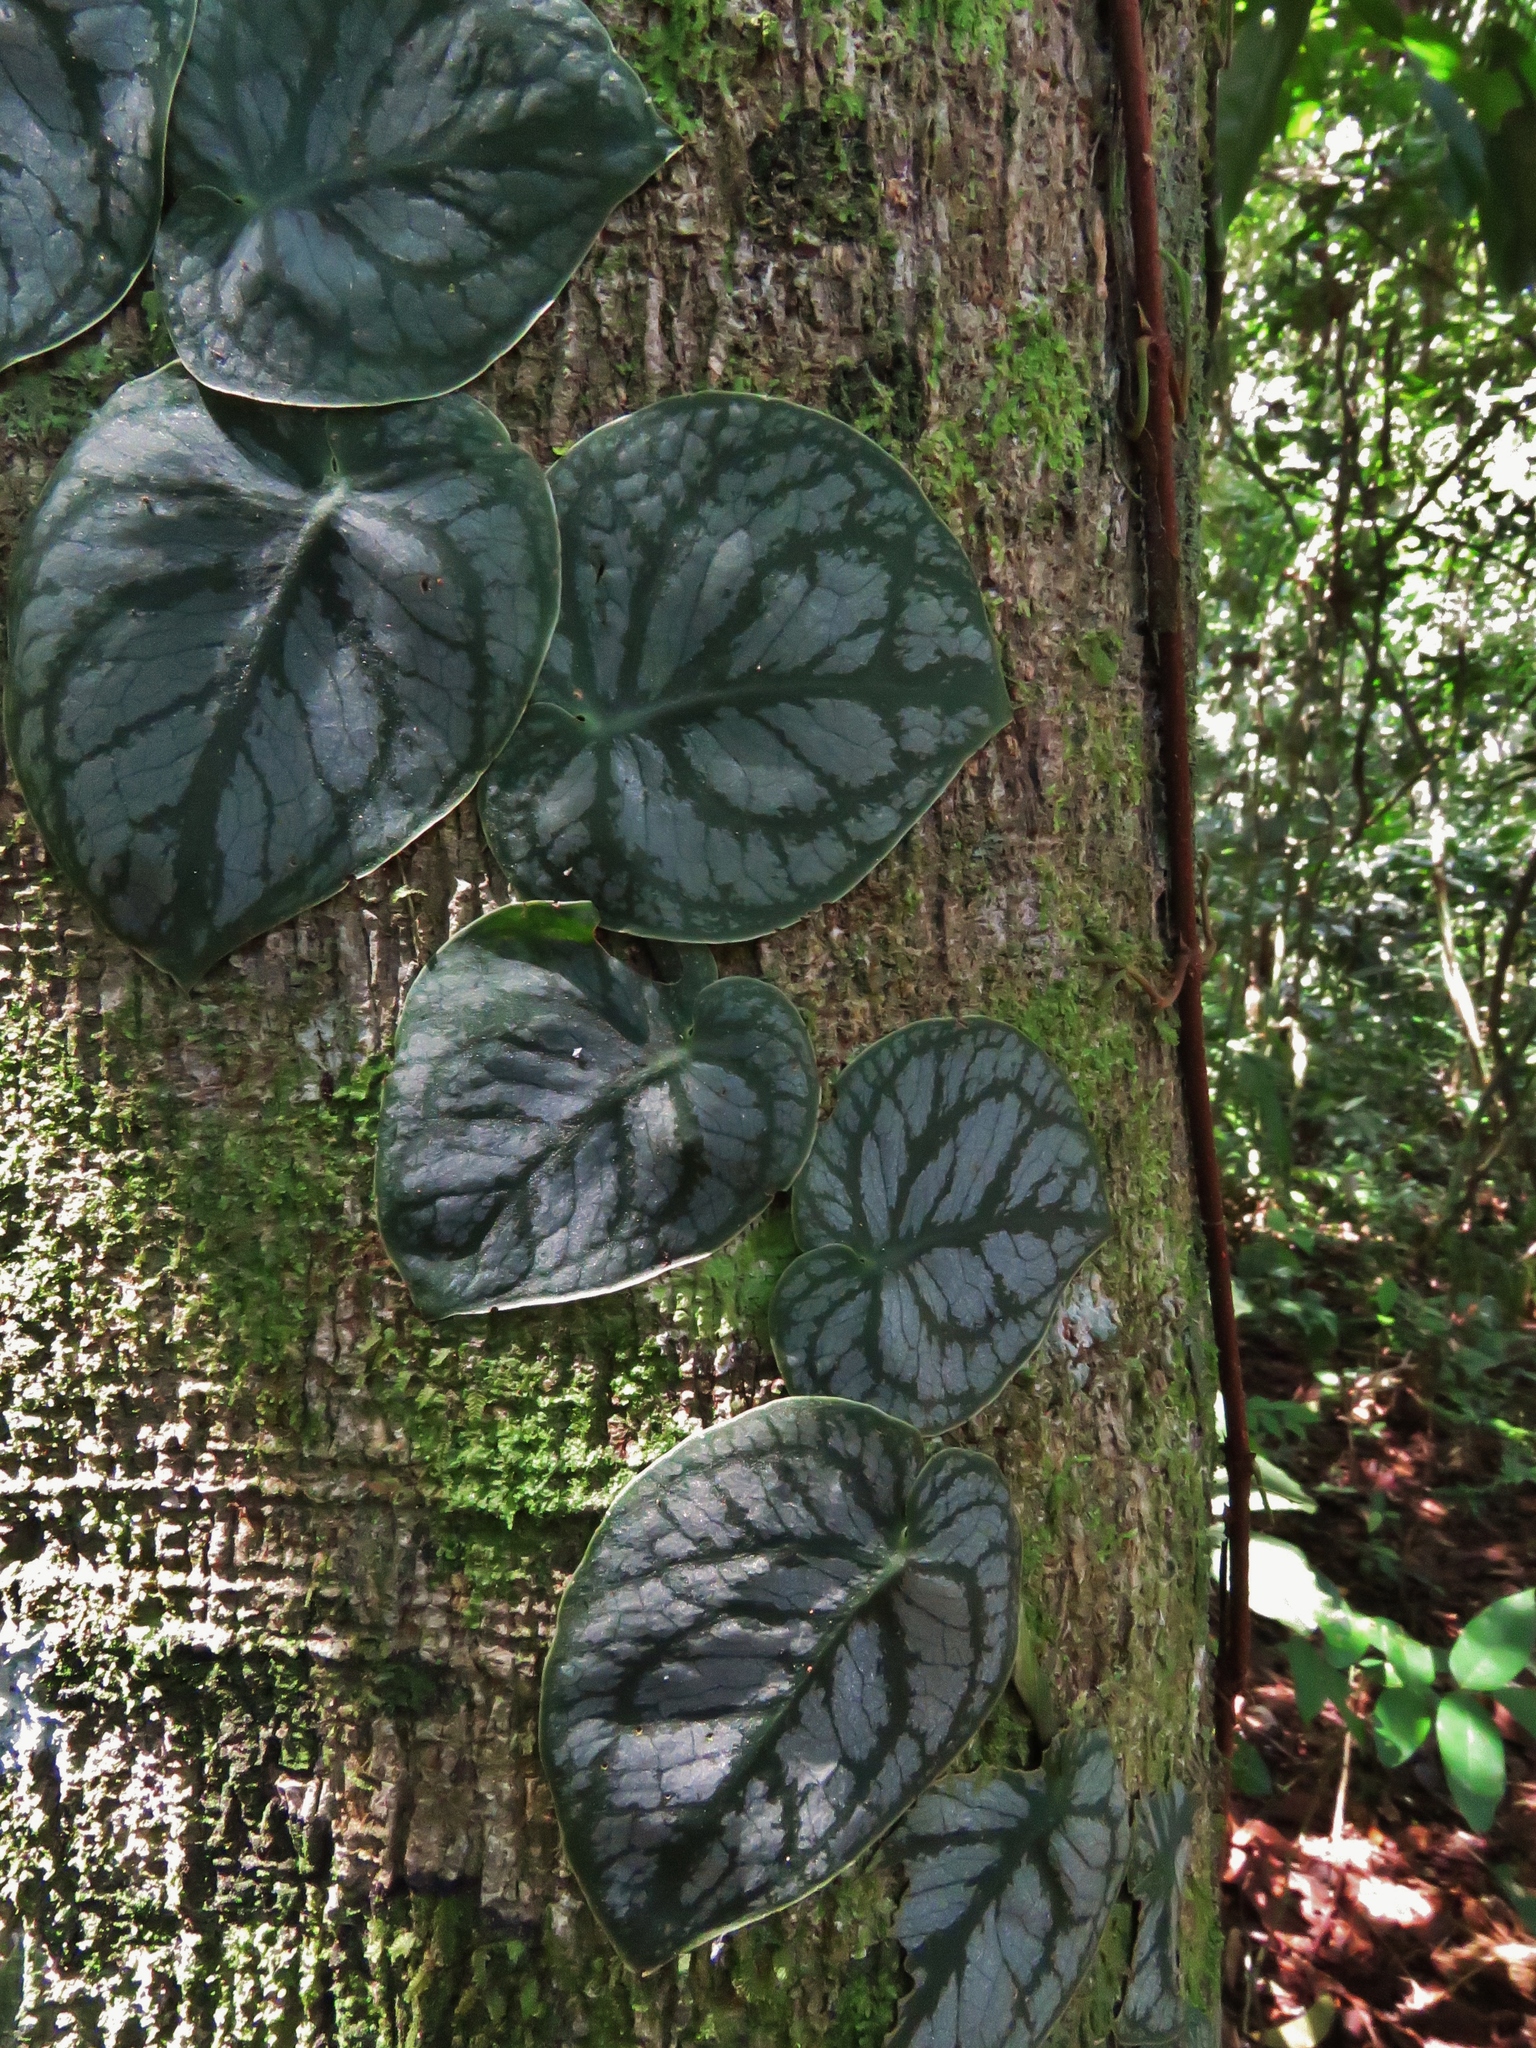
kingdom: Plantae
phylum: Tracheophyta
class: Liliopsida
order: Alismatales
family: Araceae
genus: Monstera
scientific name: Monstera dubia
